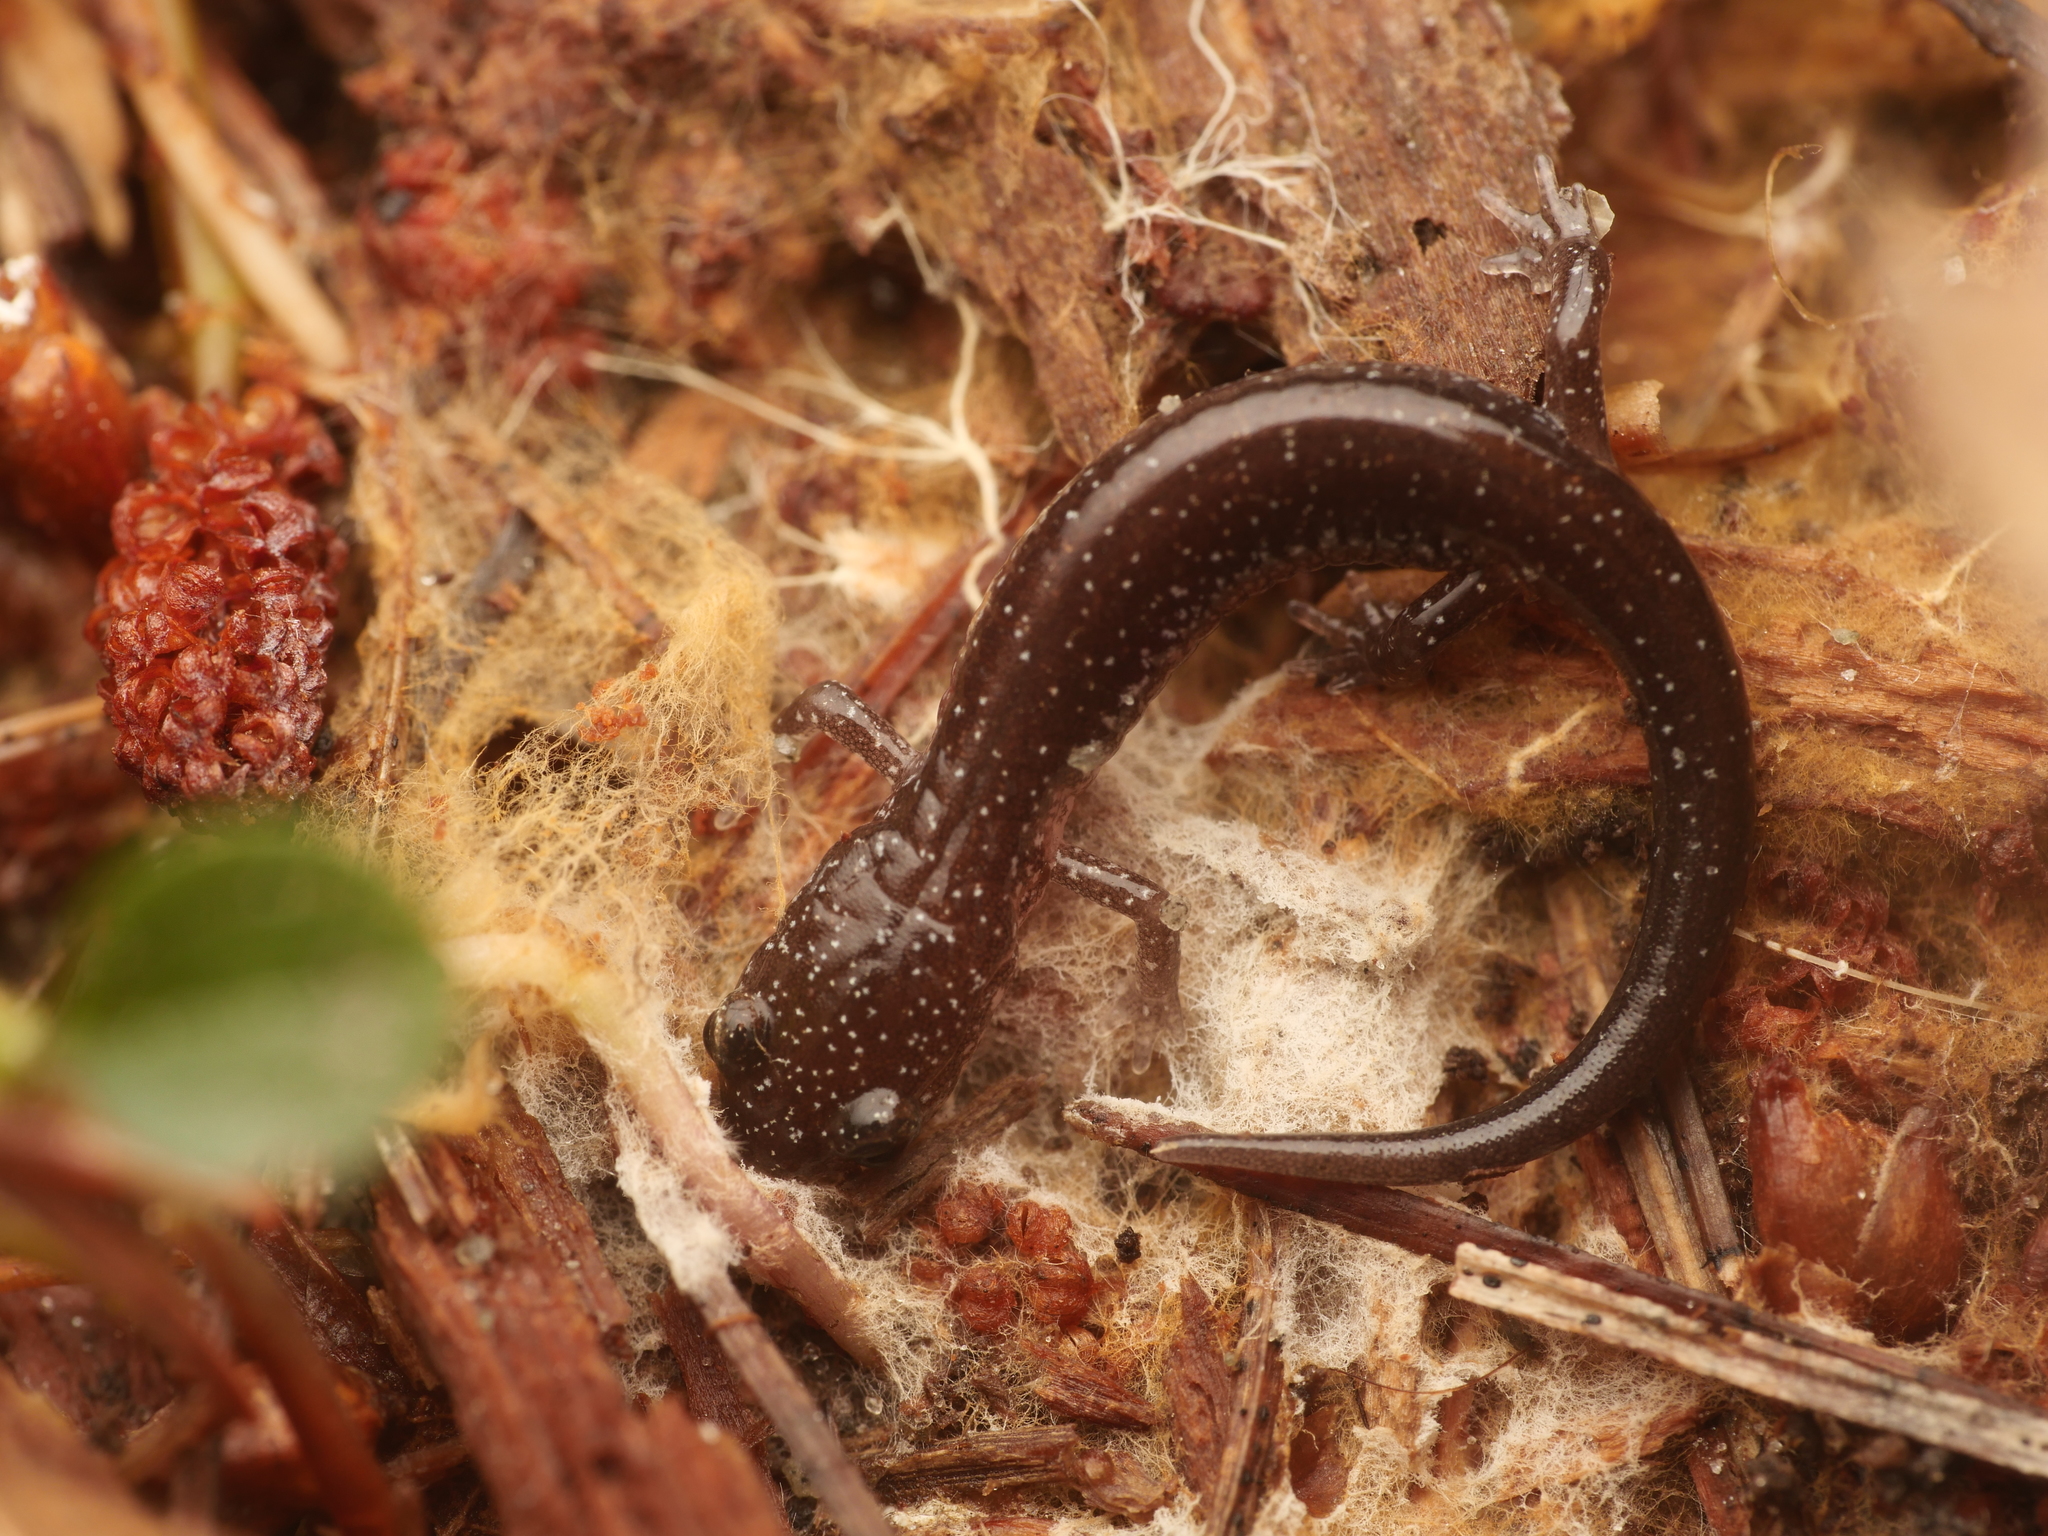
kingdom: Animalia
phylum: Chordata
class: Amphibia
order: Caudata
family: Plethodontidae
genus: Plethodon
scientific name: Plethodon cinereus
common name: Redback salamander
